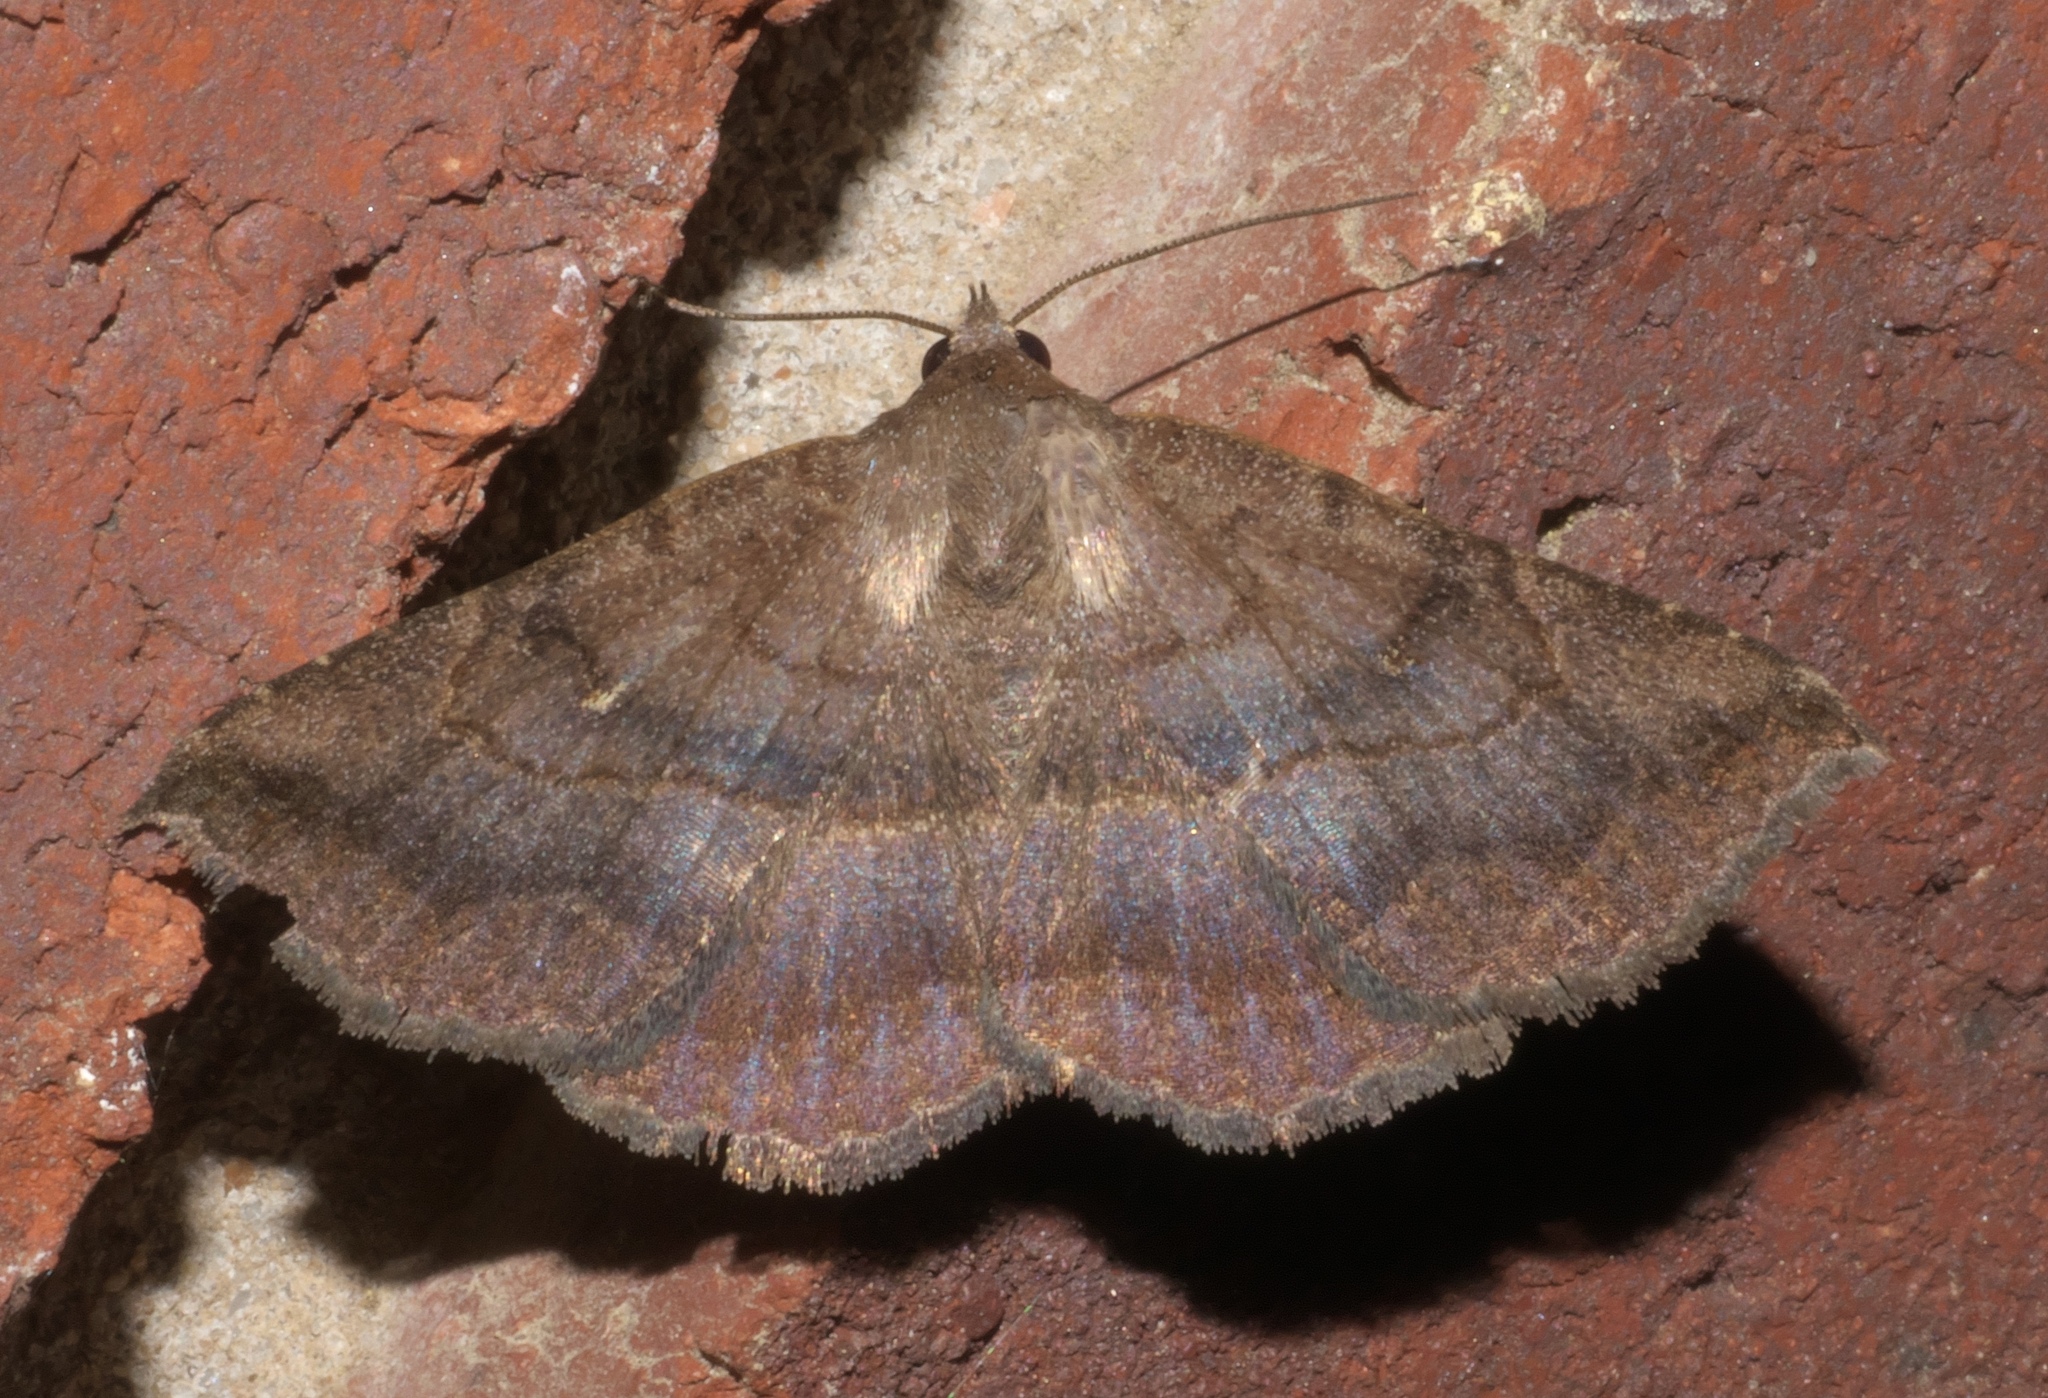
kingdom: Animalia
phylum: Arthropoda
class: Insecta
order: Lepidoptera
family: Erebidae
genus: Lesmone
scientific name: Lesmone detrahens
